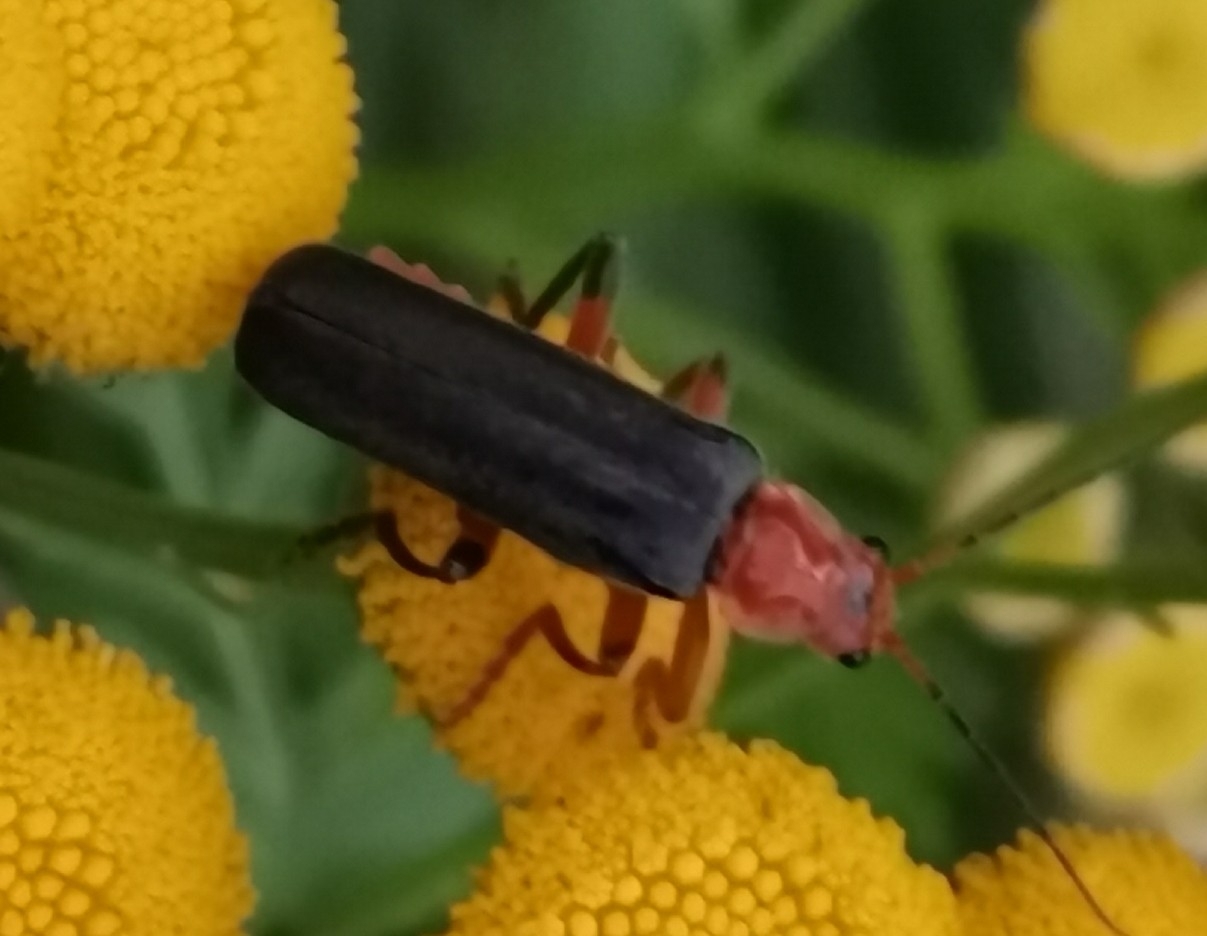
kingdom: Animalia
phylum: Arthropoda
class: Insecta
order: Coleoptera
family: Cantharidae
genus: Cantharis
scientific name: Cantharis livida
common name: Livid soldier beetle
